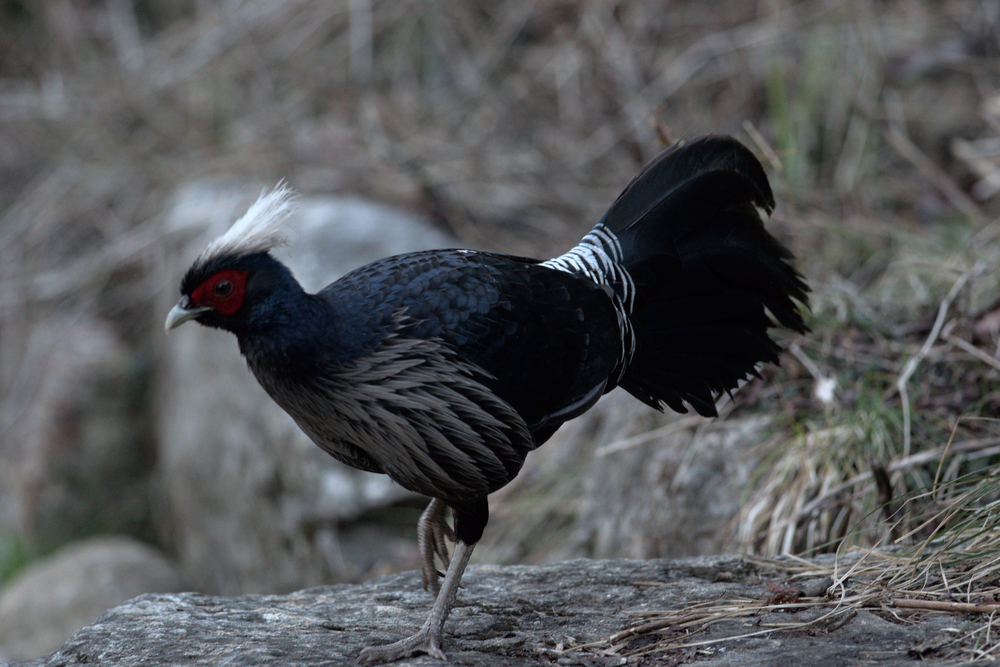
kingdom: Animalia
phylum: Chordata
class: Aves
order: Galliformes
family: Phasianidae
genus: Lophura
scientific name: Lophura leucomelanos
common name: Kalij pheasant
